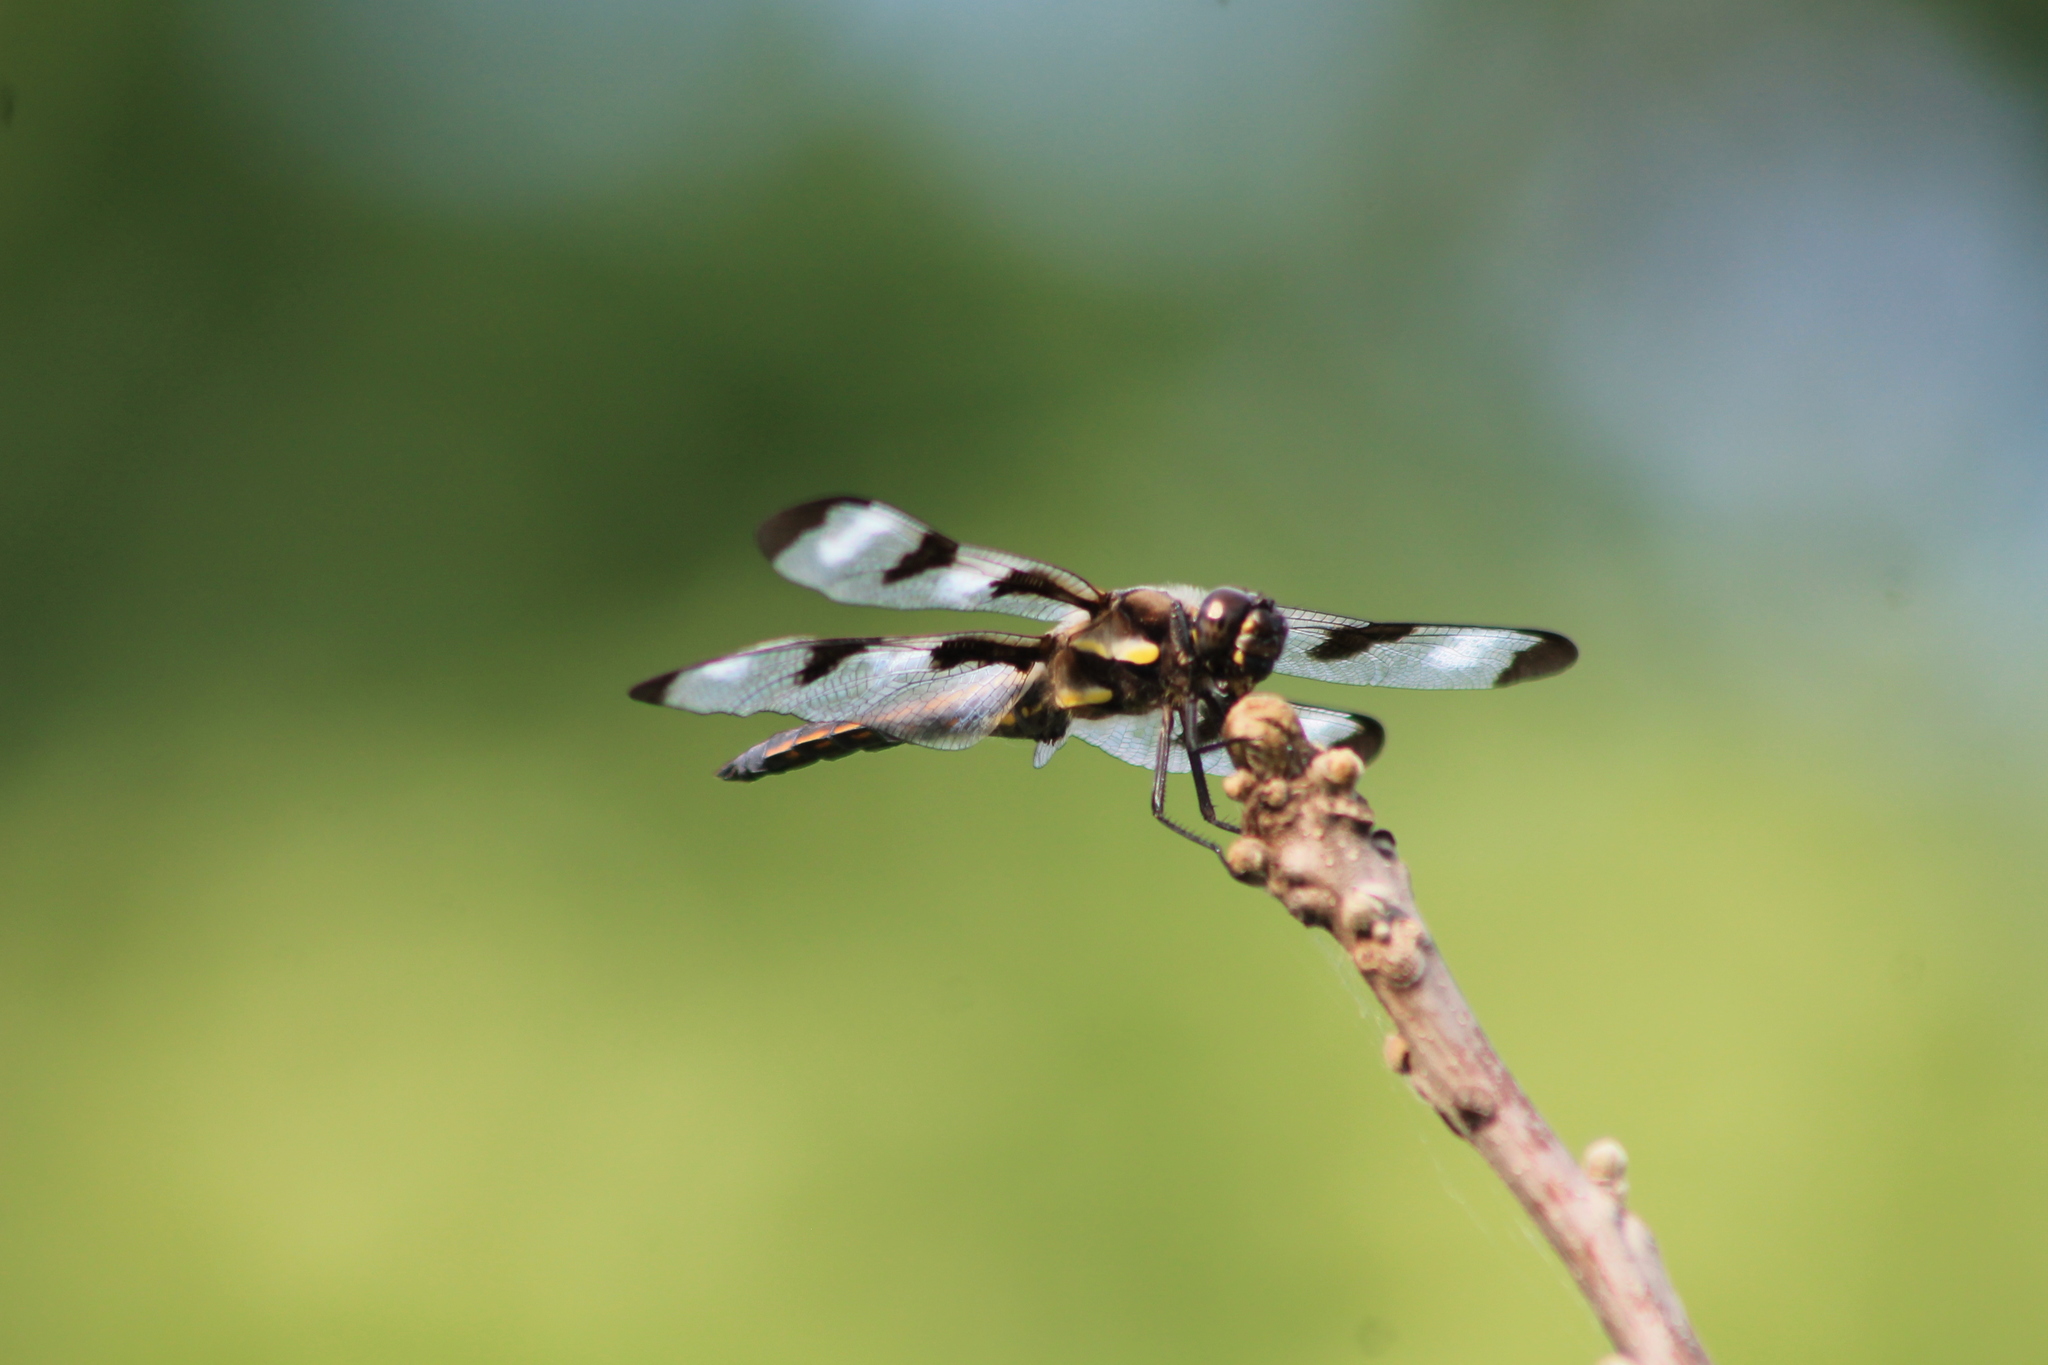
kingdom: Animalia
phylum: Arthropoda
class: Insecta
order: Odonata
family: Libellulidae
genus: Libellula
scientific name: Libellula pulchella
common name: Twelve-spotted skimmer
